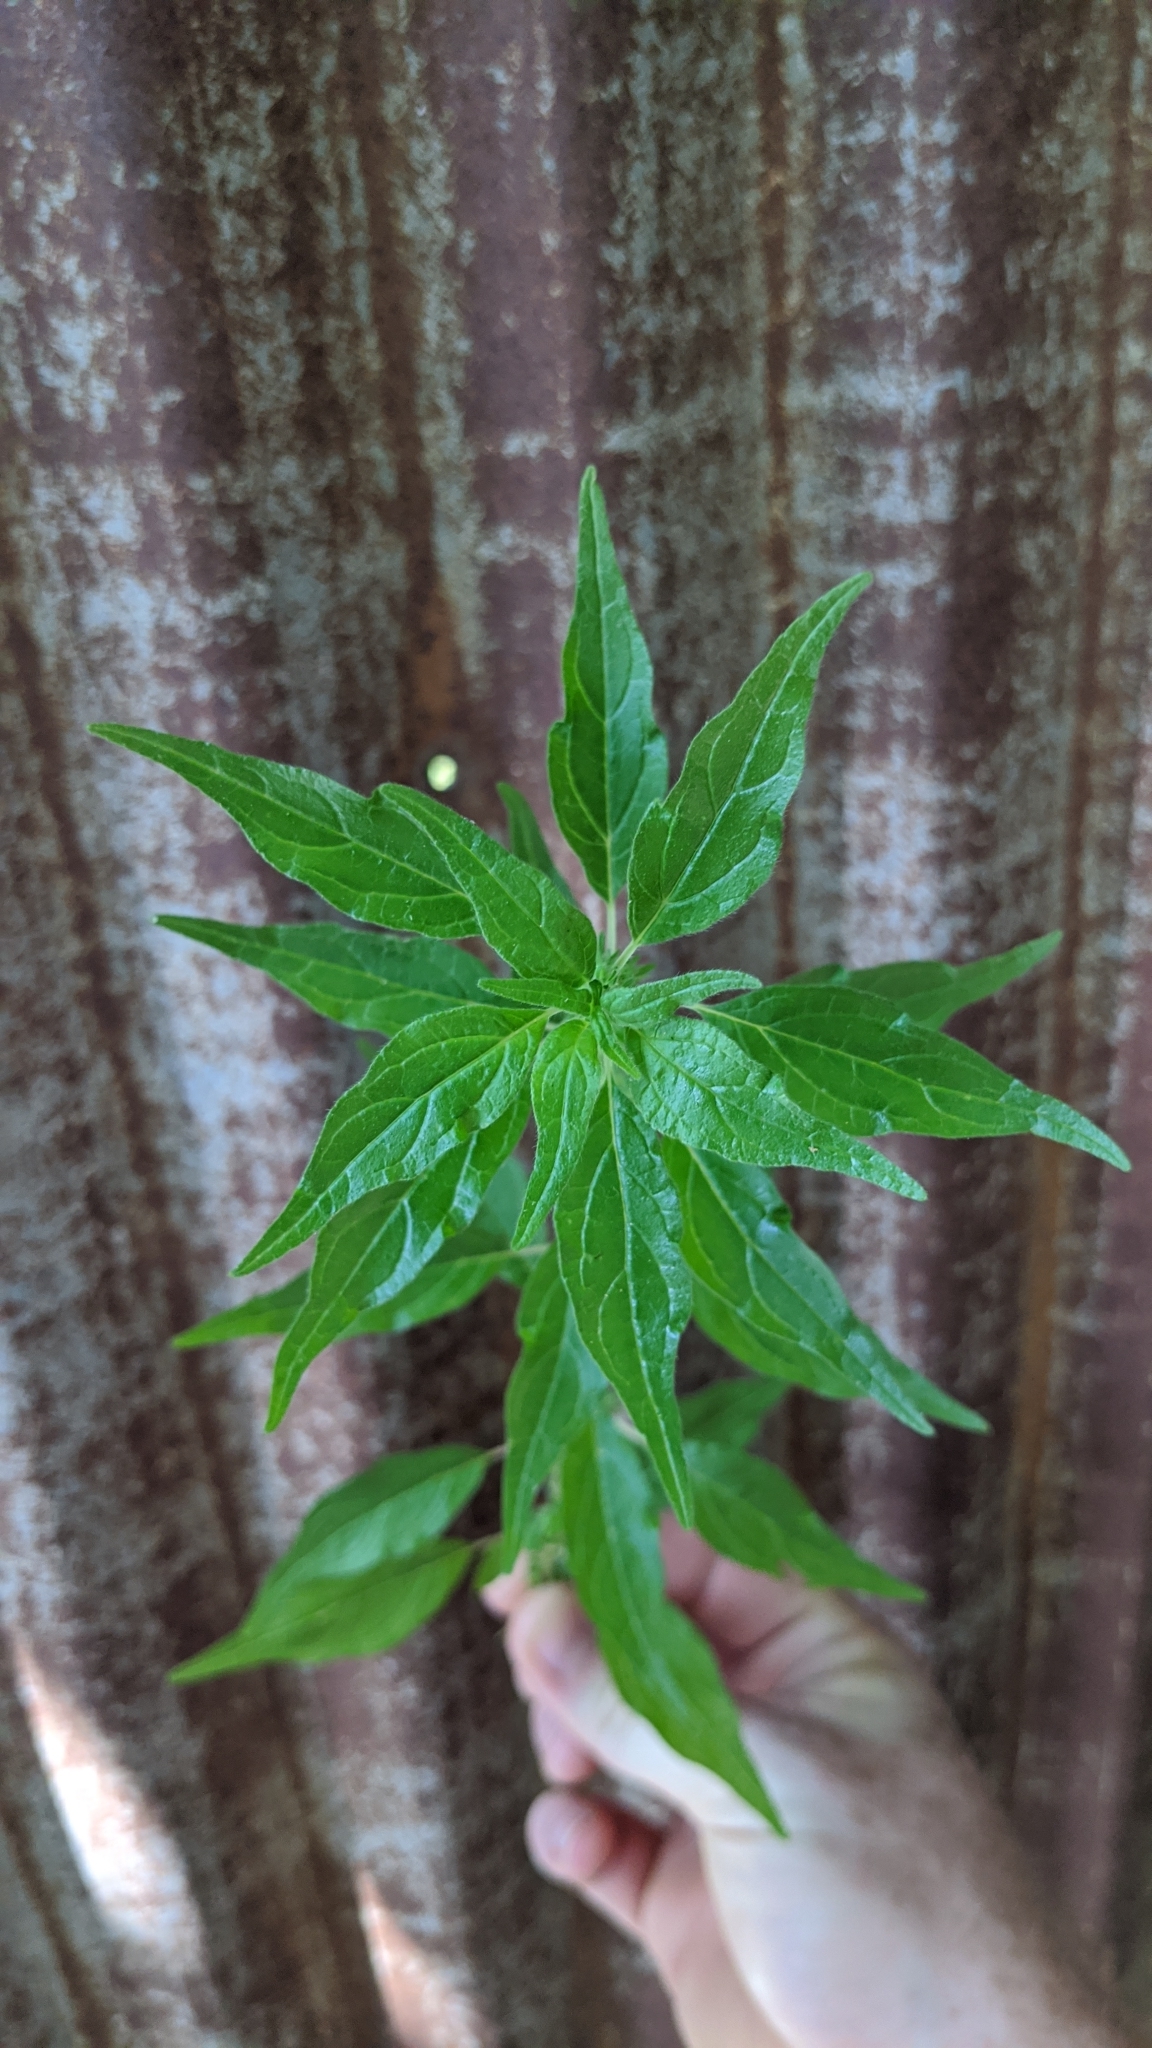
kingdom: Plantae
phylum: Tracheophyta
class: Magnoliopsida
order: Rosales
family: Urticaceae
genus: Parietaria
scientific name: Parietaria pensylvanica
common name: Pennsylvania pellitory
